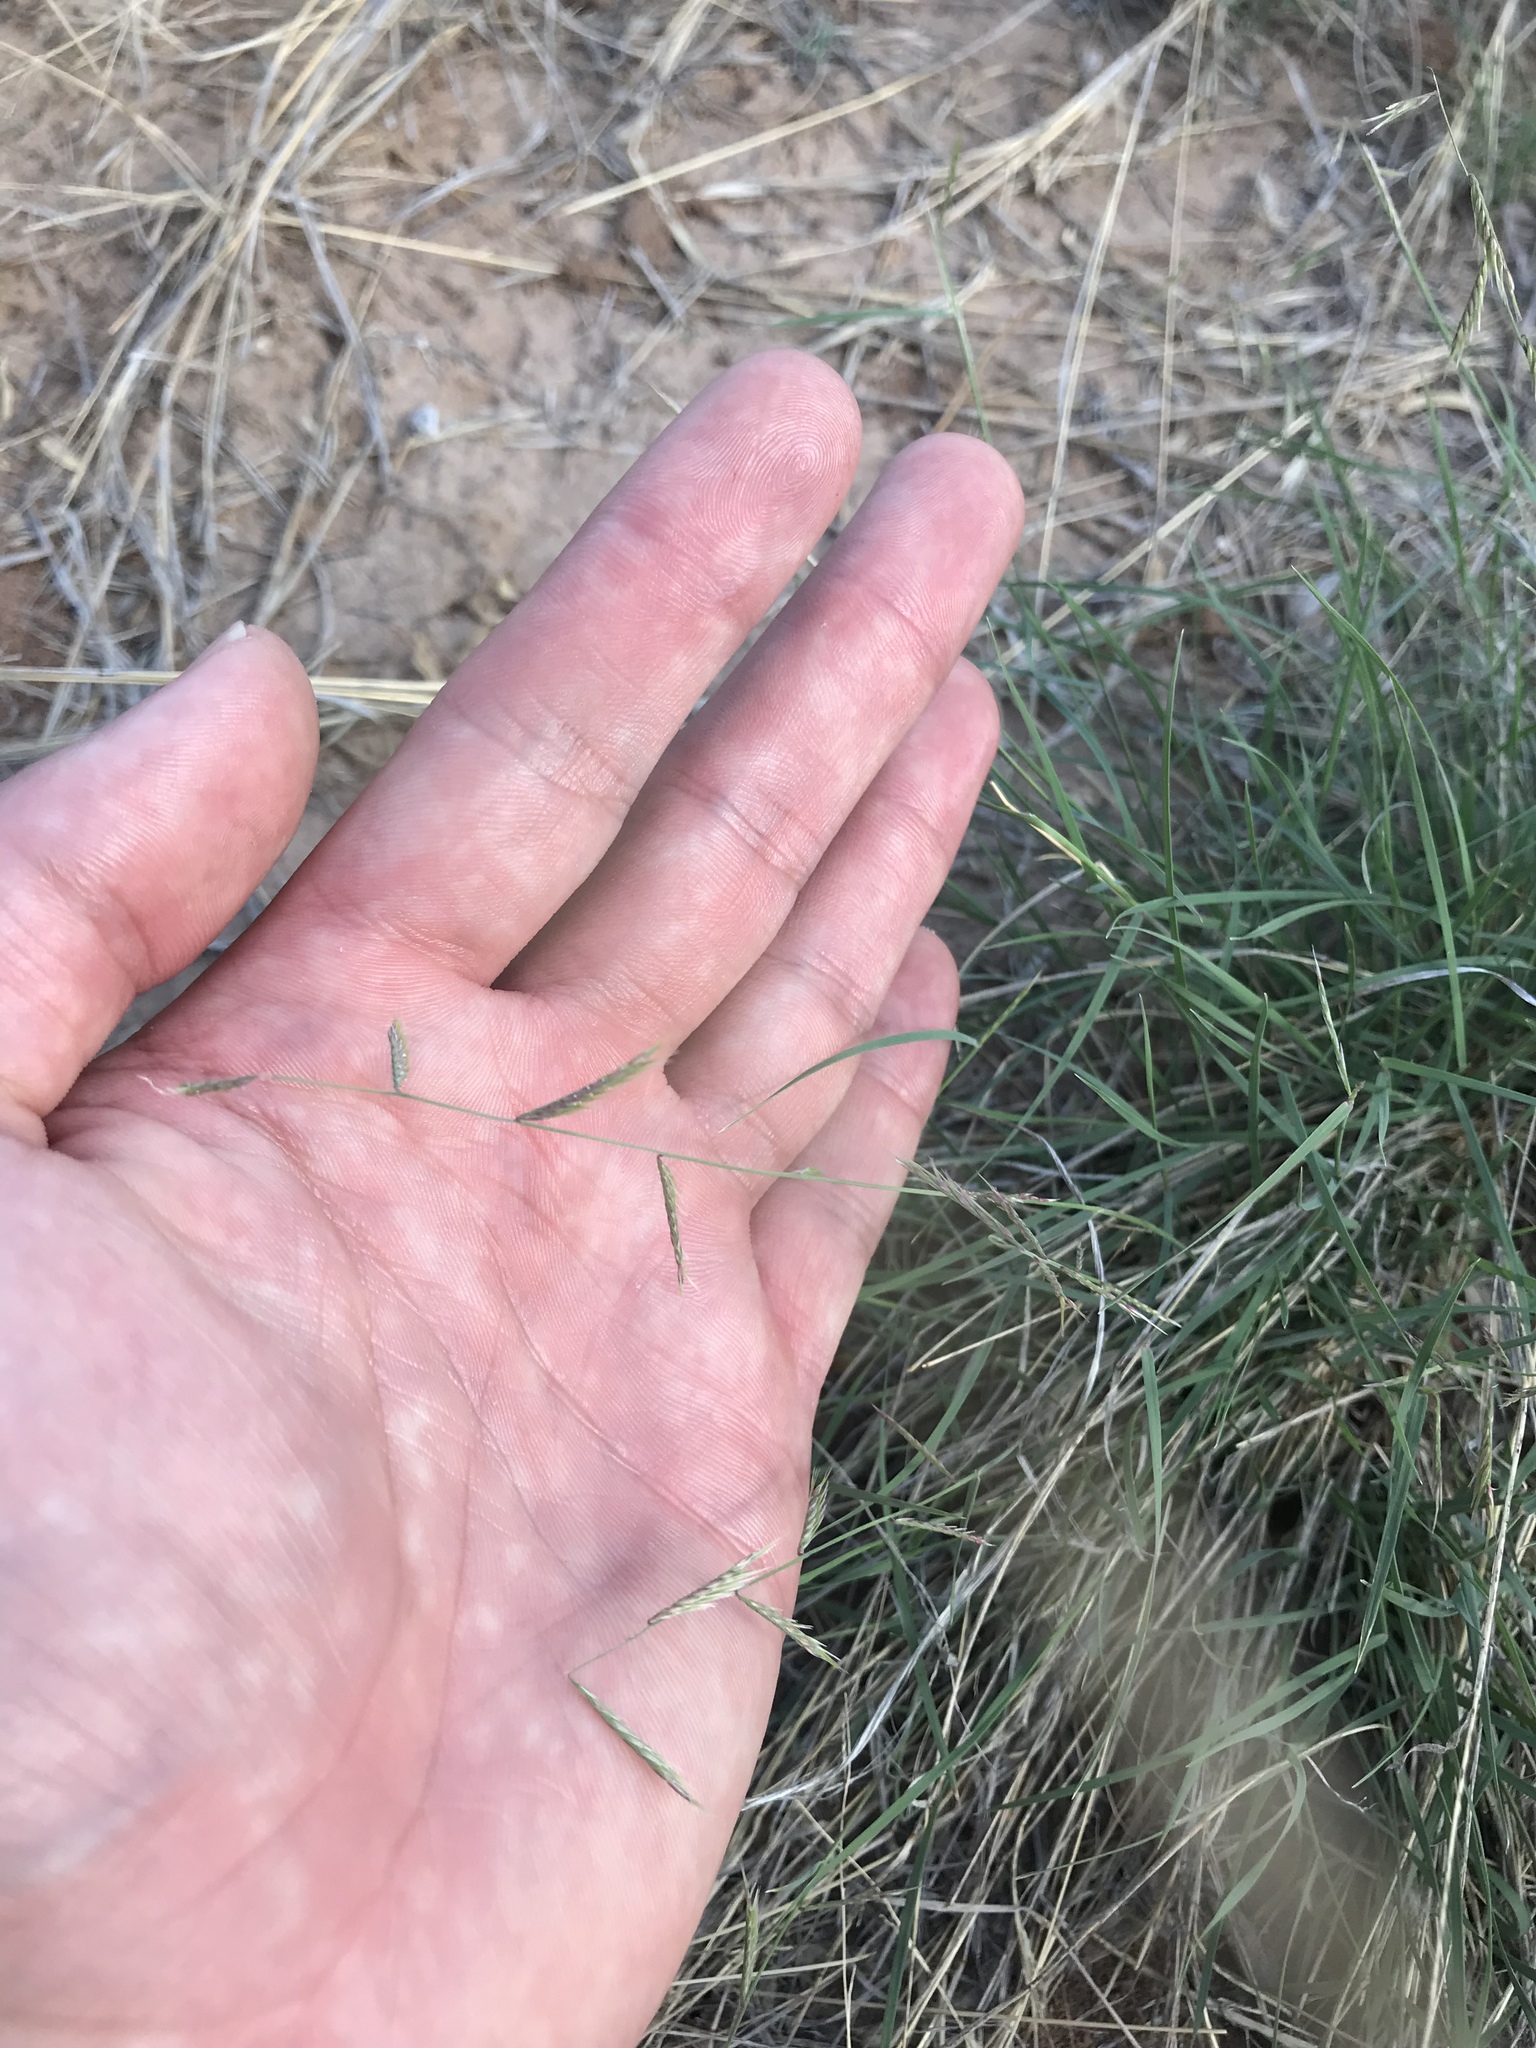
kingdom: Plantae
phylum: Tracheophyta
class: Liliopsida
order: Poales
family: Poaceae
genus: Bouteloua
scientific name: Bouteloua trifida
